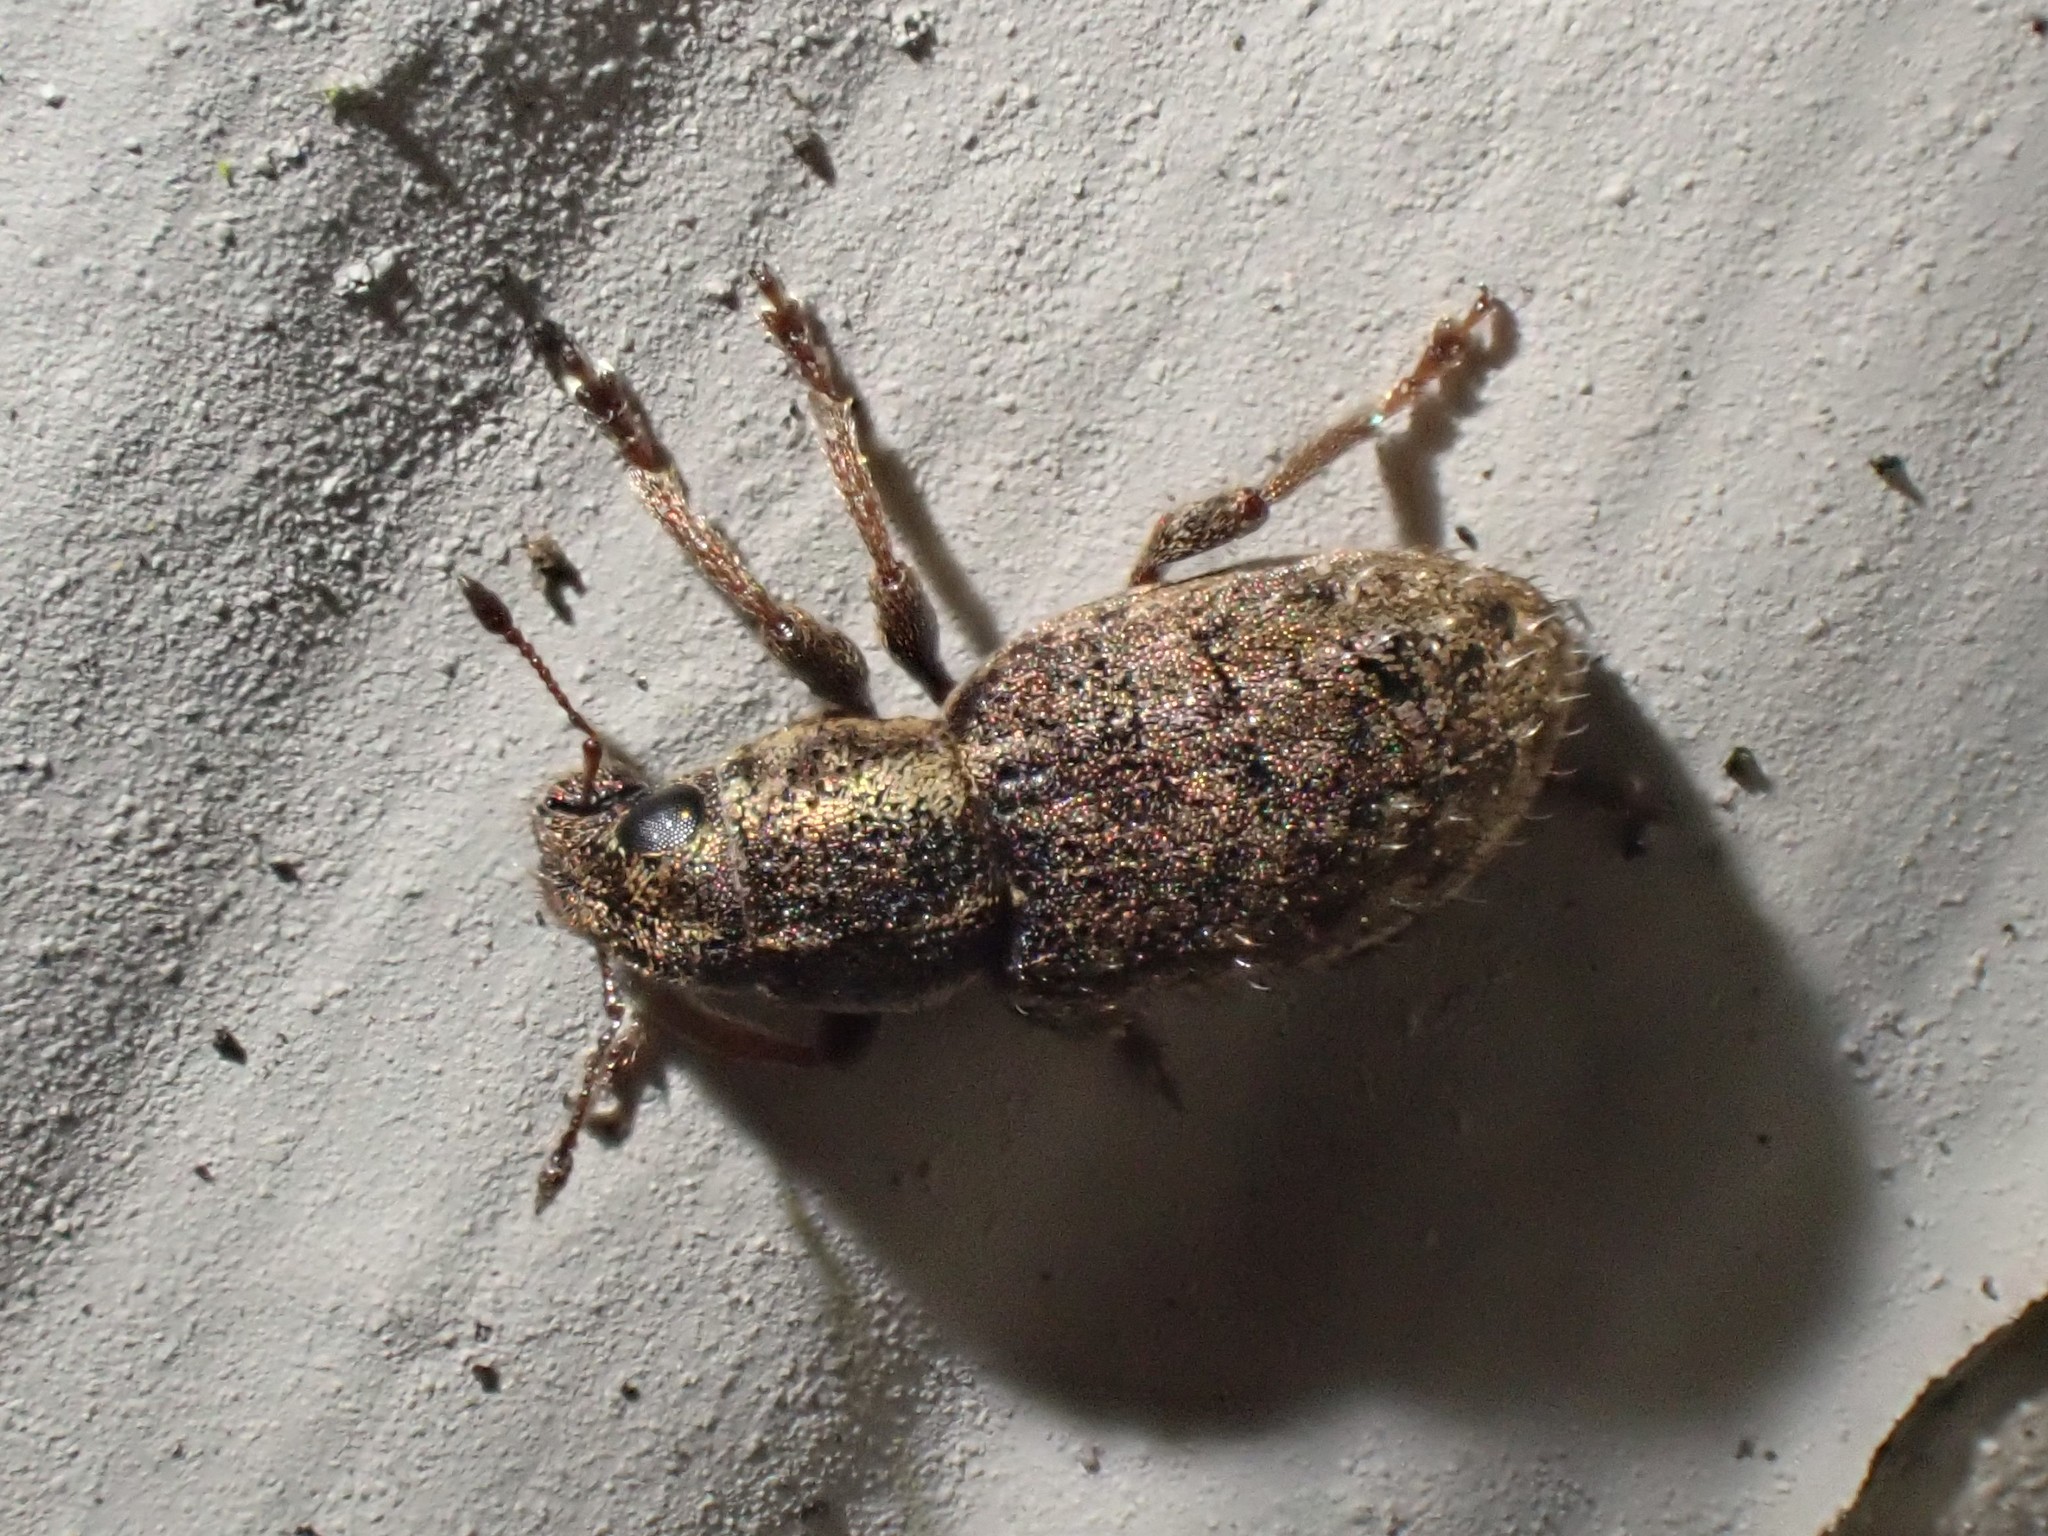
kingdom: Animalia
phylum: Arthropoda
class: Insecta
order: Coleoptera
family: Curculionidae
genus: Sitona
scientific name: Sitona hispidulus
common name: Clover weevil
